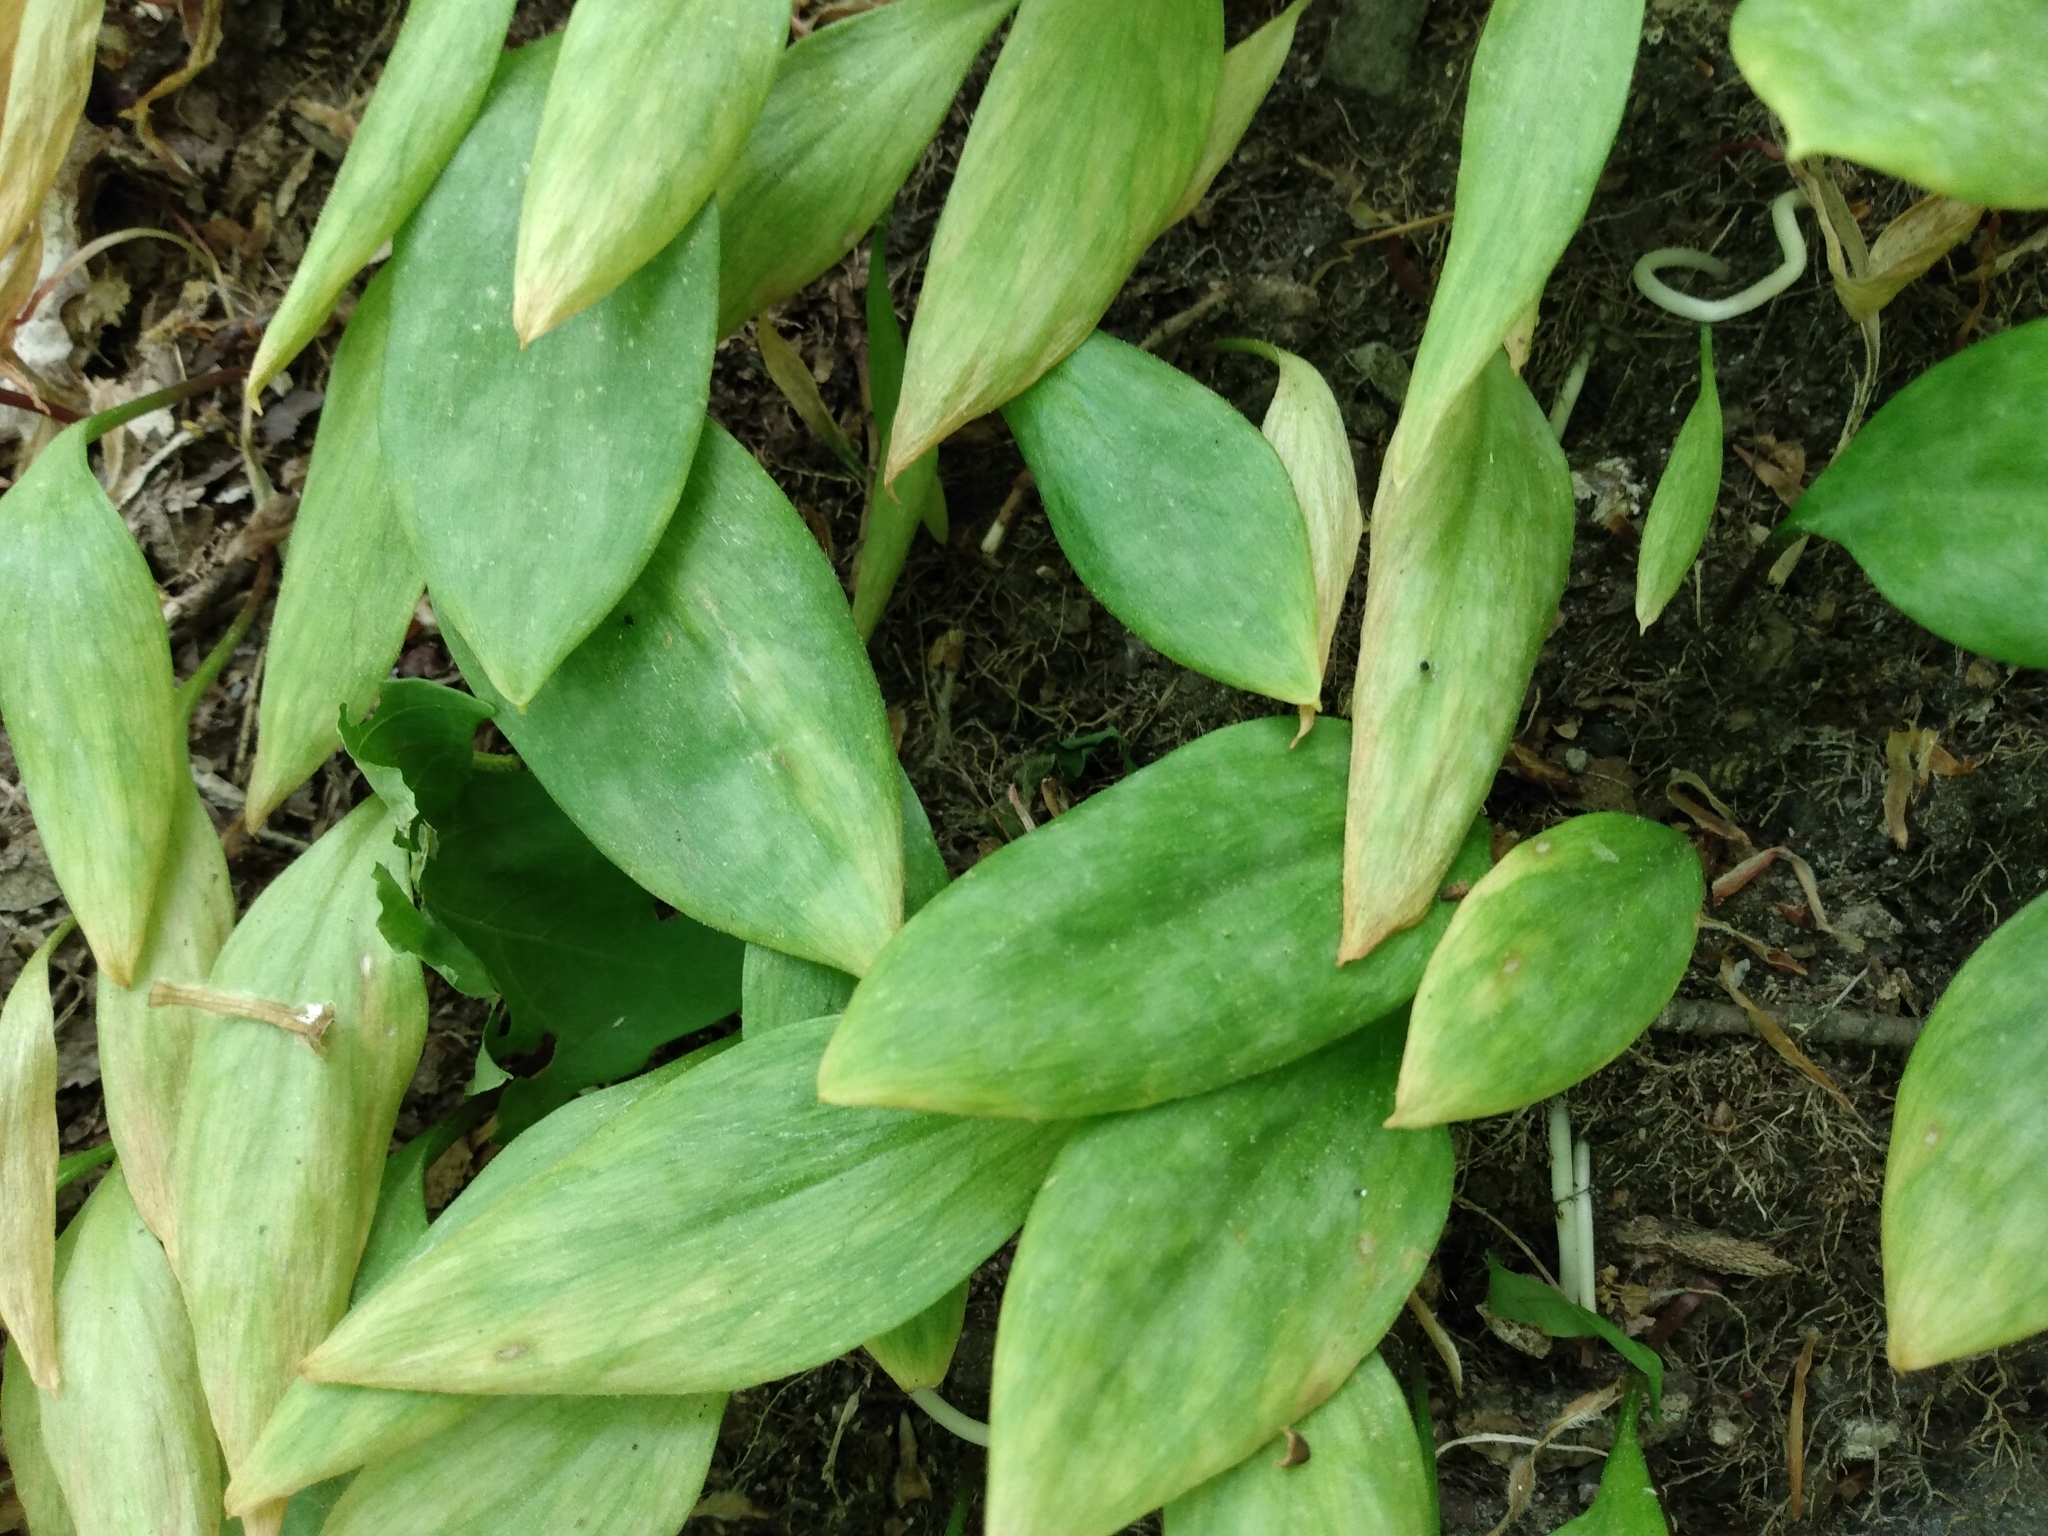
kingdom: Plantae
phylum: Tracheophyta
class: Liliopsida
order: Liliales
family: Liliaceae
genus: Erythronium
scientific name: Erythronium americanum
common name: Yellow adder's-tongue
